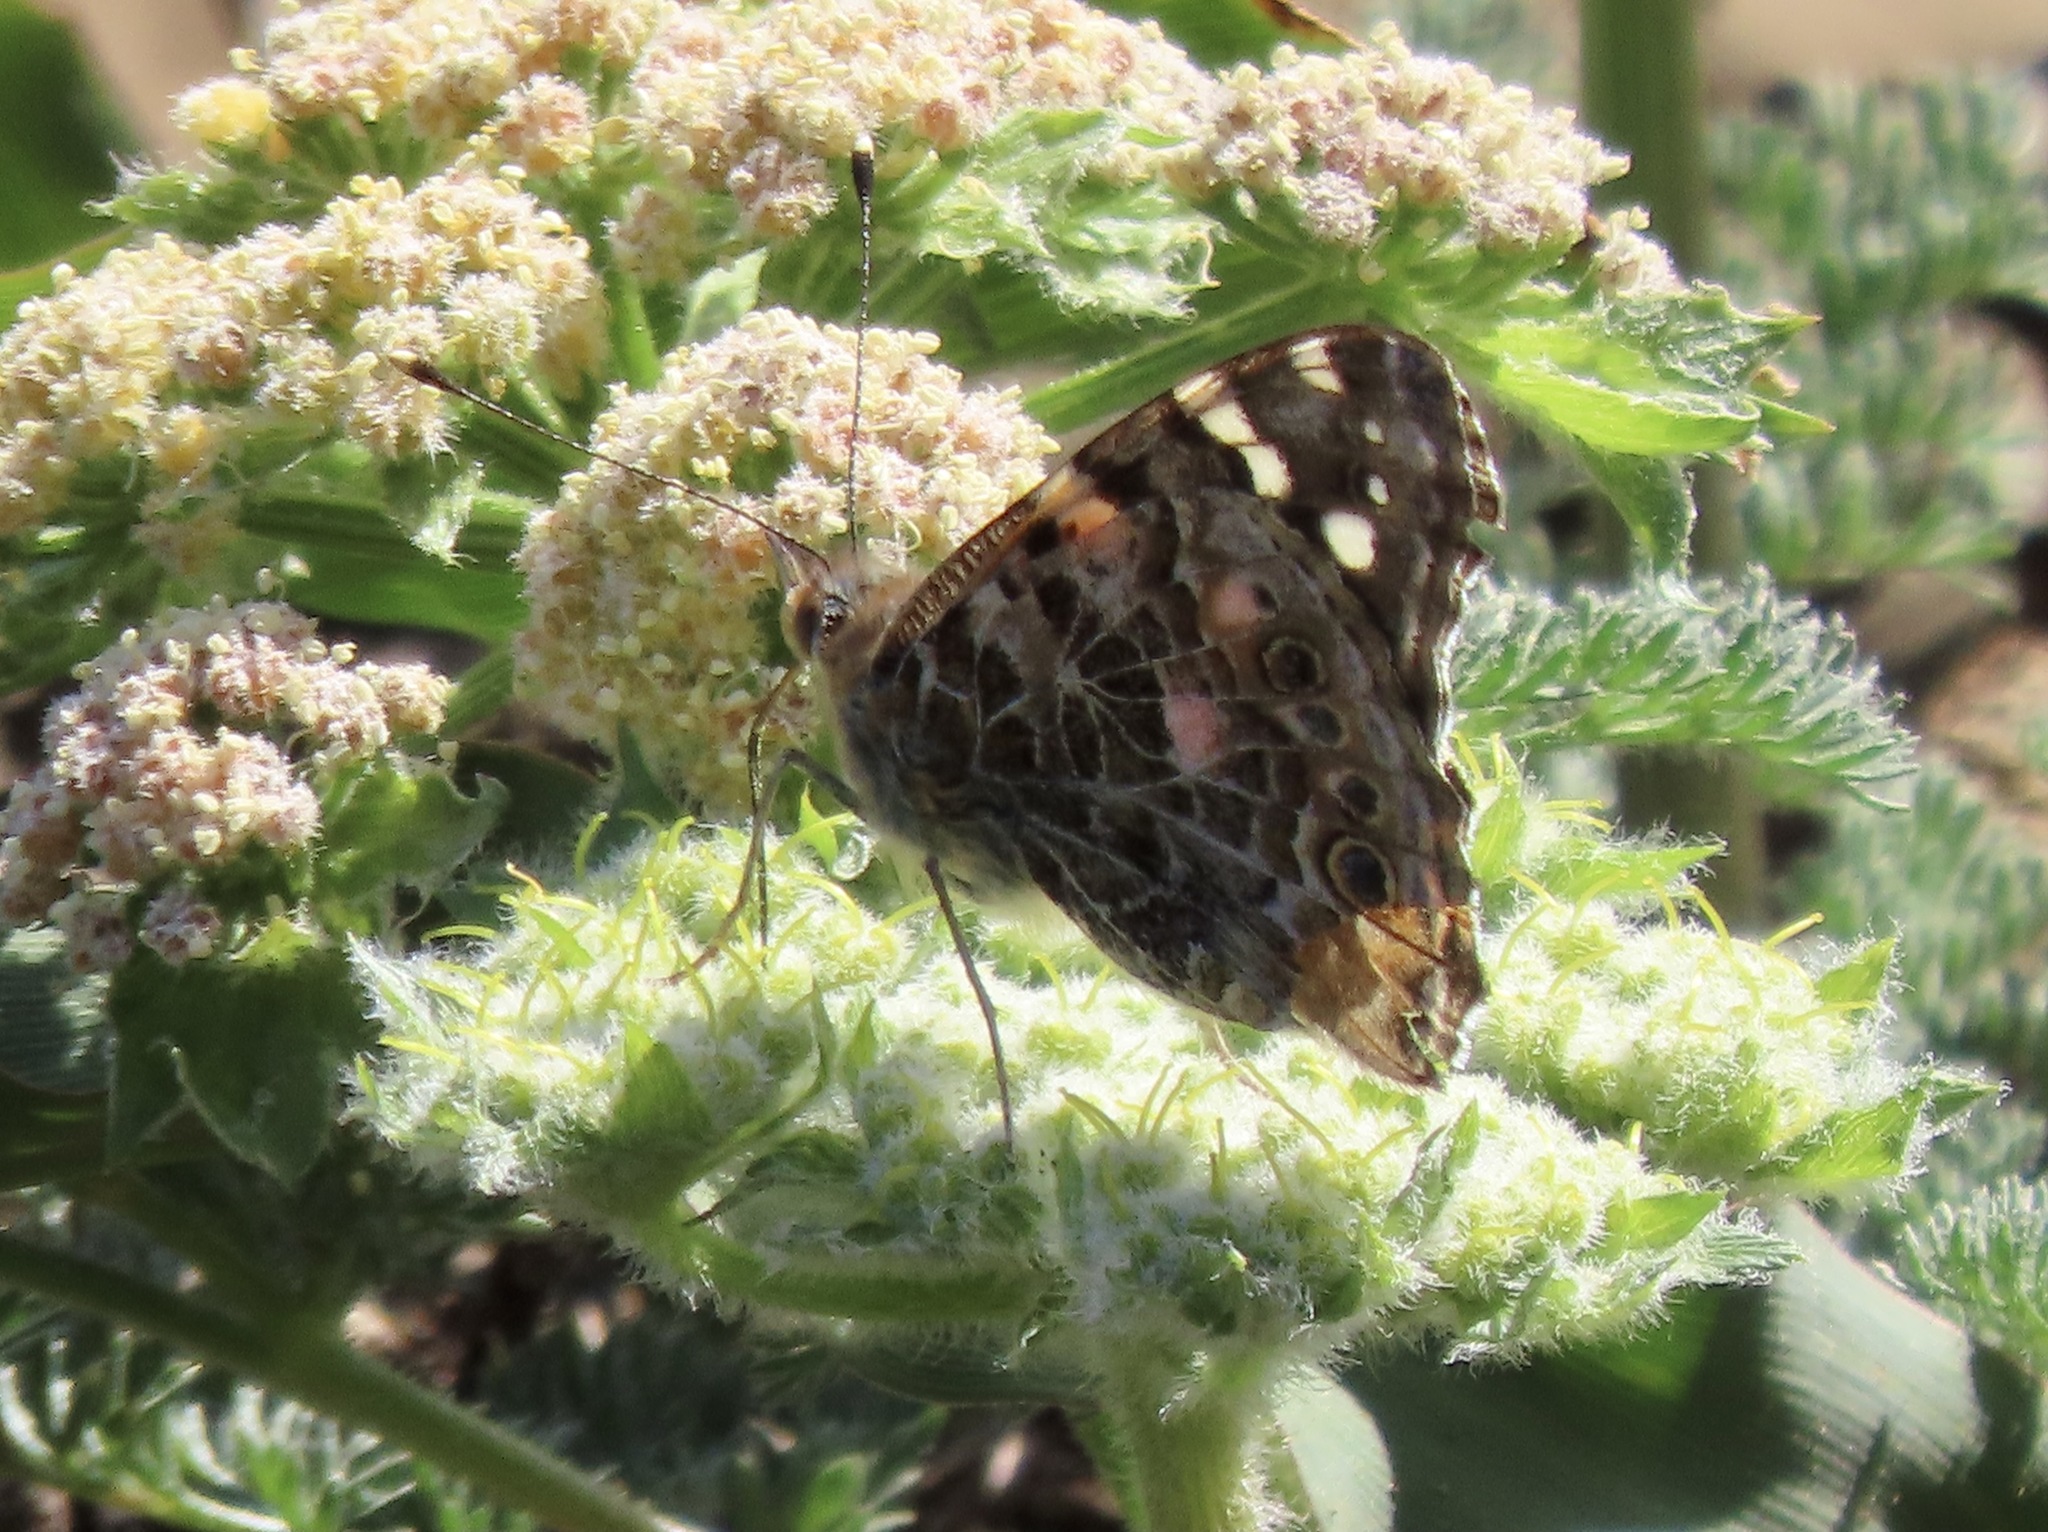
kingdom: Animalia
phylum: Arthropoda
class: Insecta
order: Lepidoptera
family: Nymphalidae
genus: Vanessa
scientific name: Vanessa cardui
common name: Painted lady
